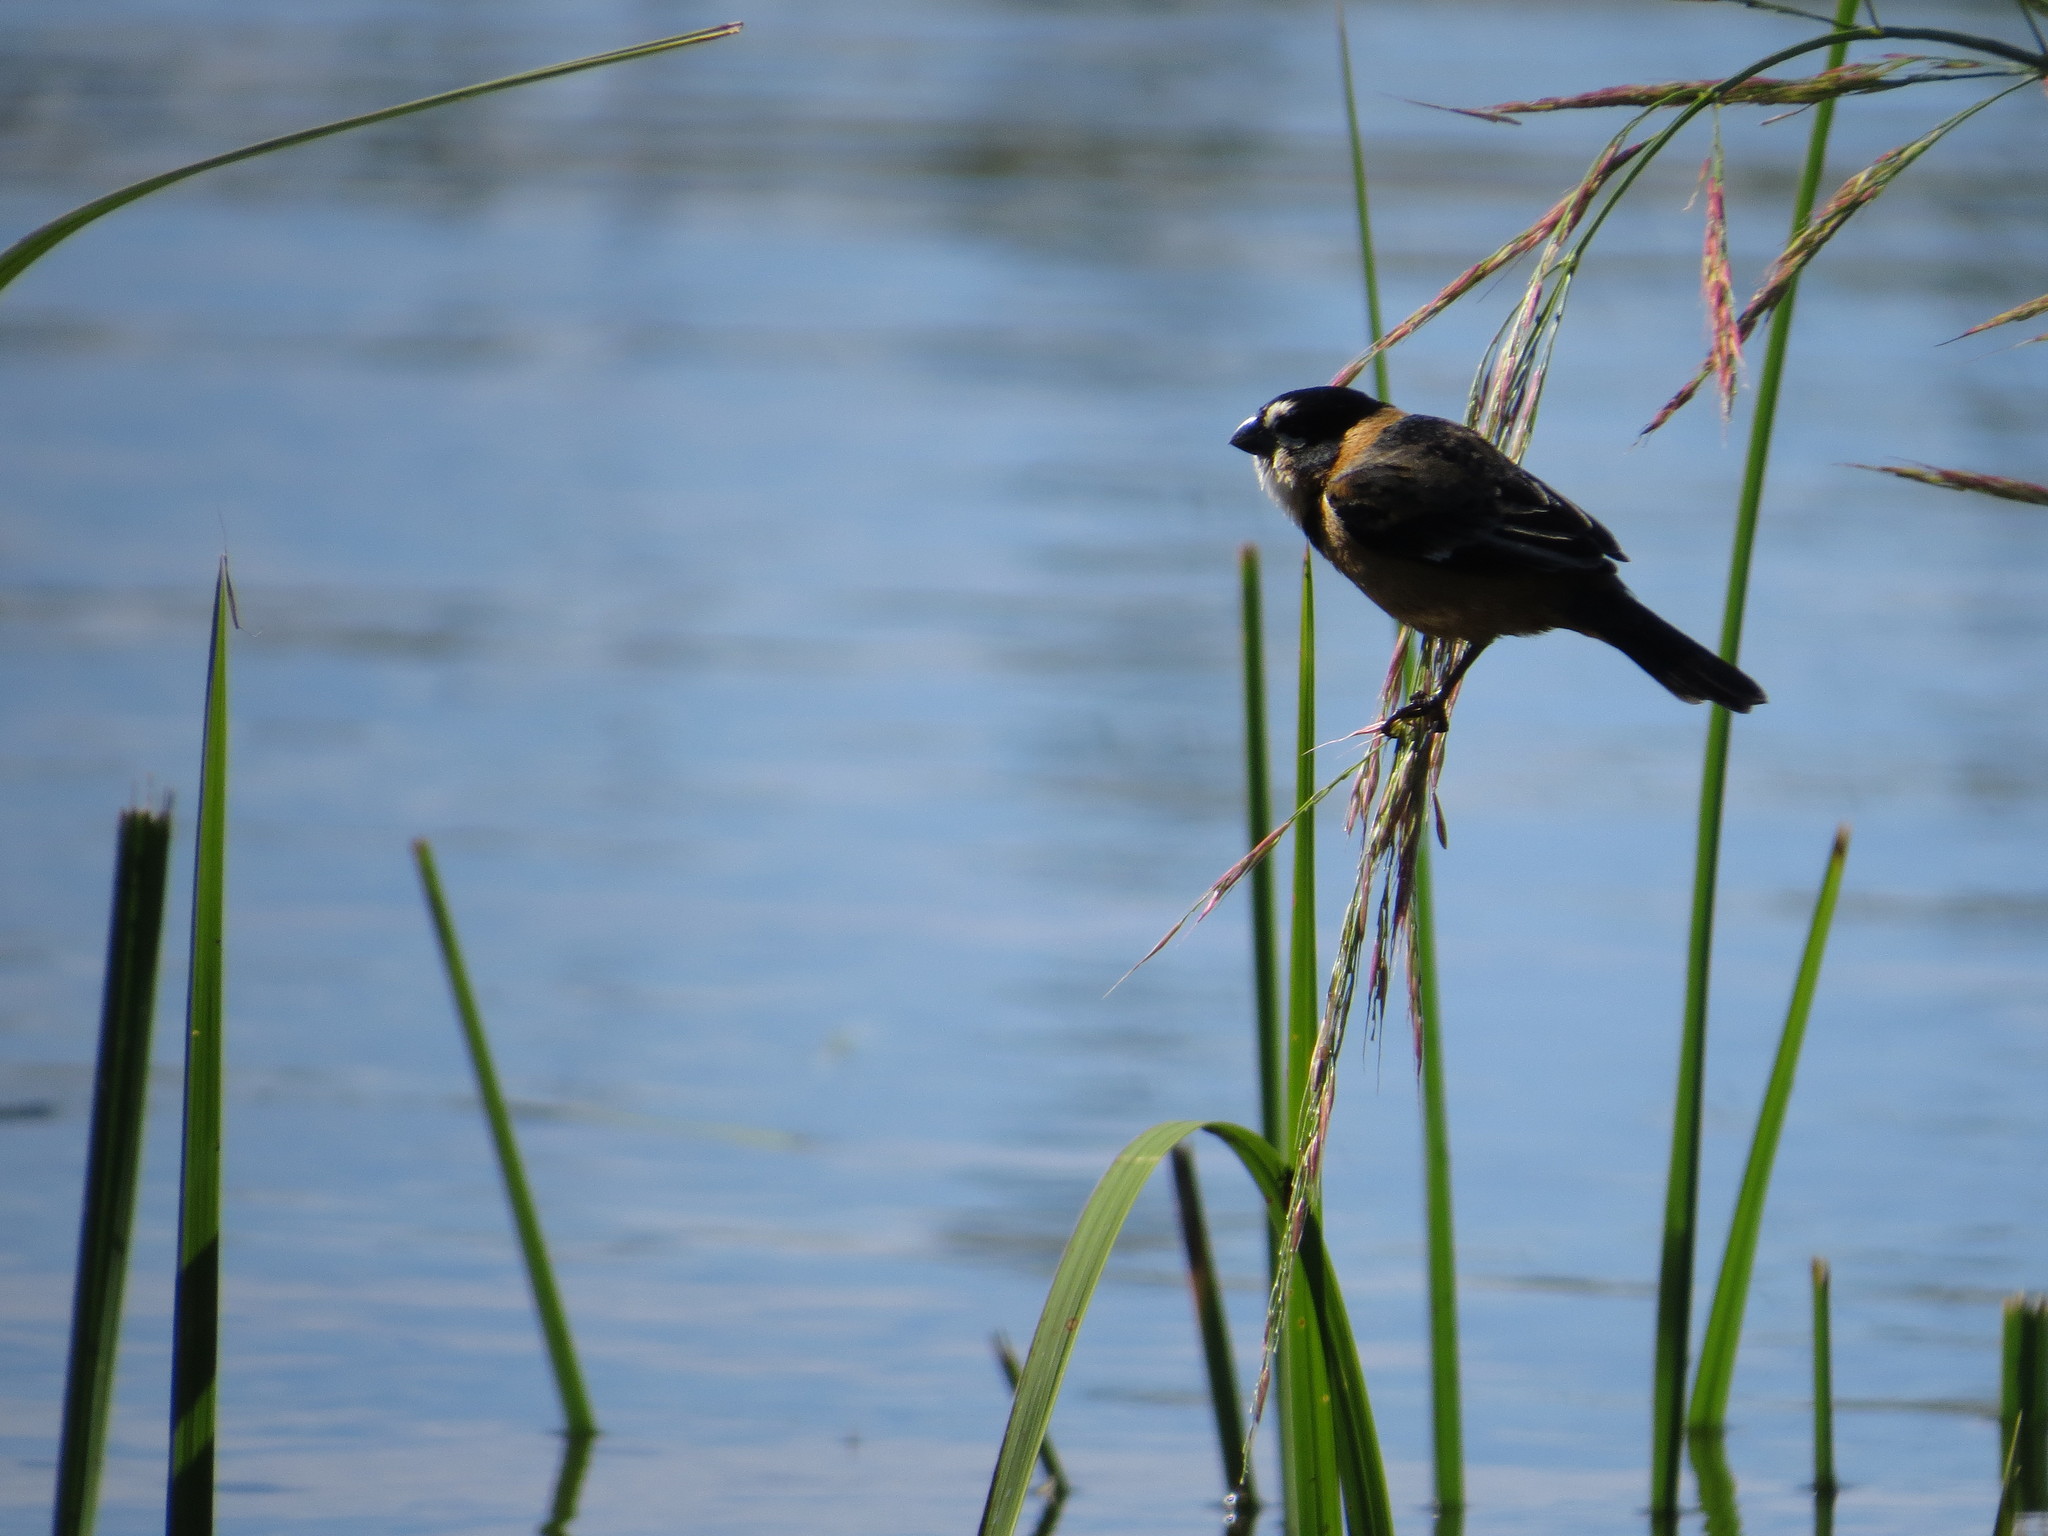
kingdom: Animalia
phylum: Chordata
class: Aves
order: Passeriformes
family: Thraupidae
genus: Sporophila
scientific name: Sporophila collaris
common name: Rusty-collared seedeater
